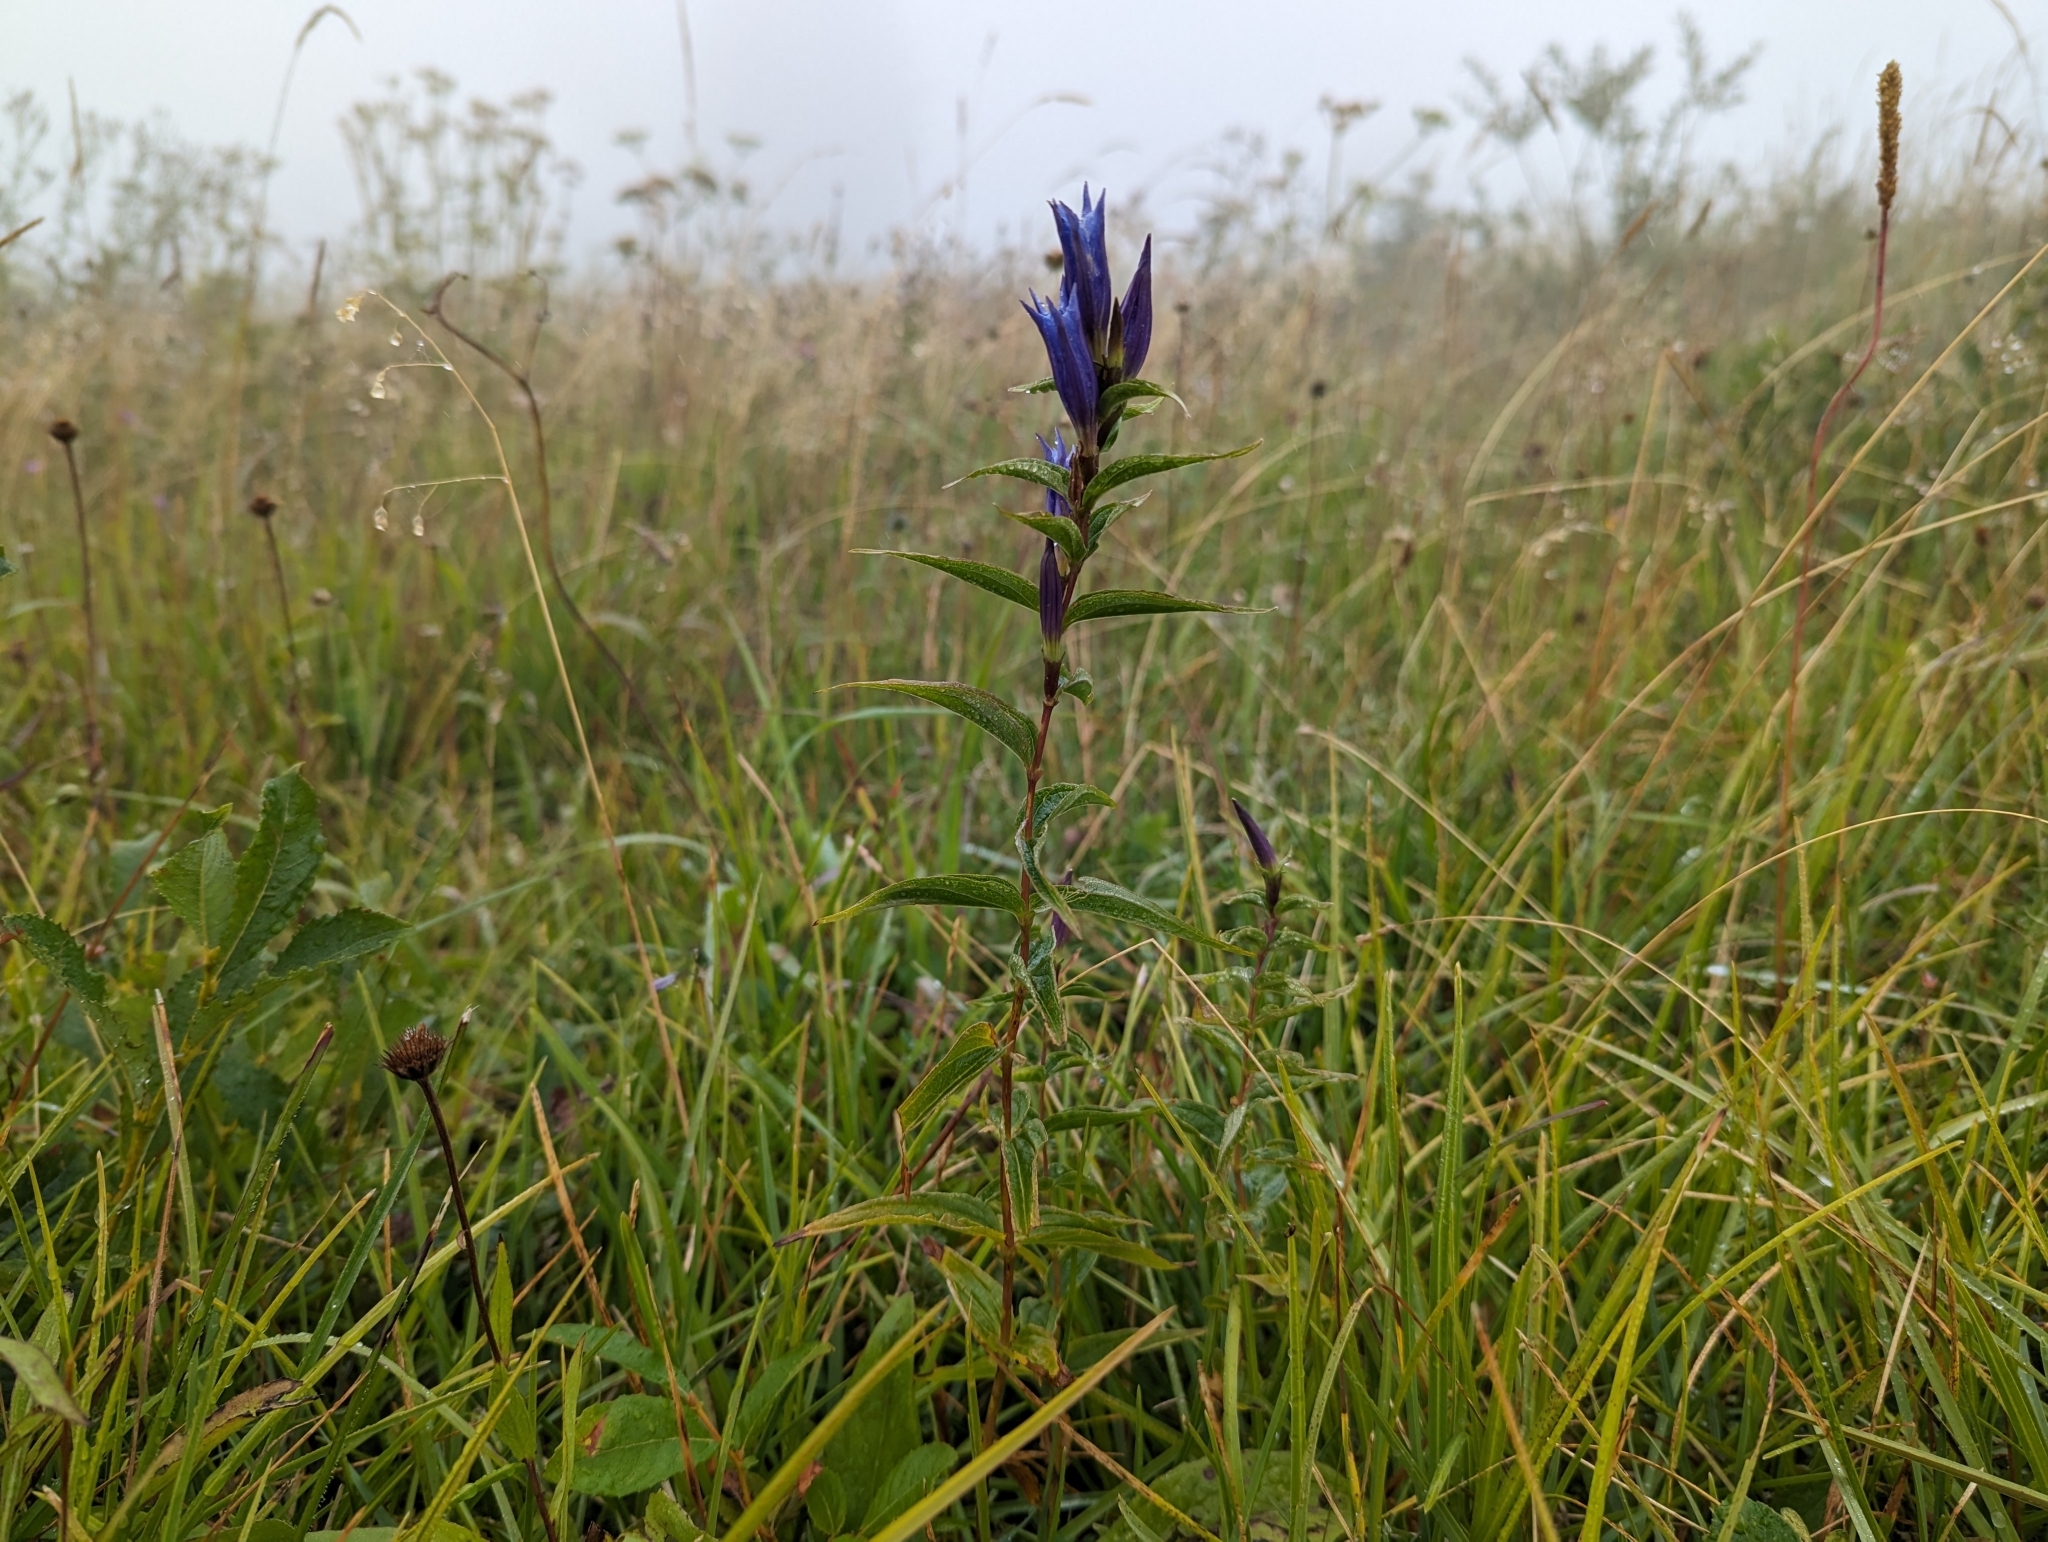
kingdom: Plantae
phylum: Tracheophyta
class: Magnoliopsida
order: Gentianales
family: Gentianaceae
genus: Gentiana
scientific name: Gentiana asclepiadea
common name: Willow gentian
